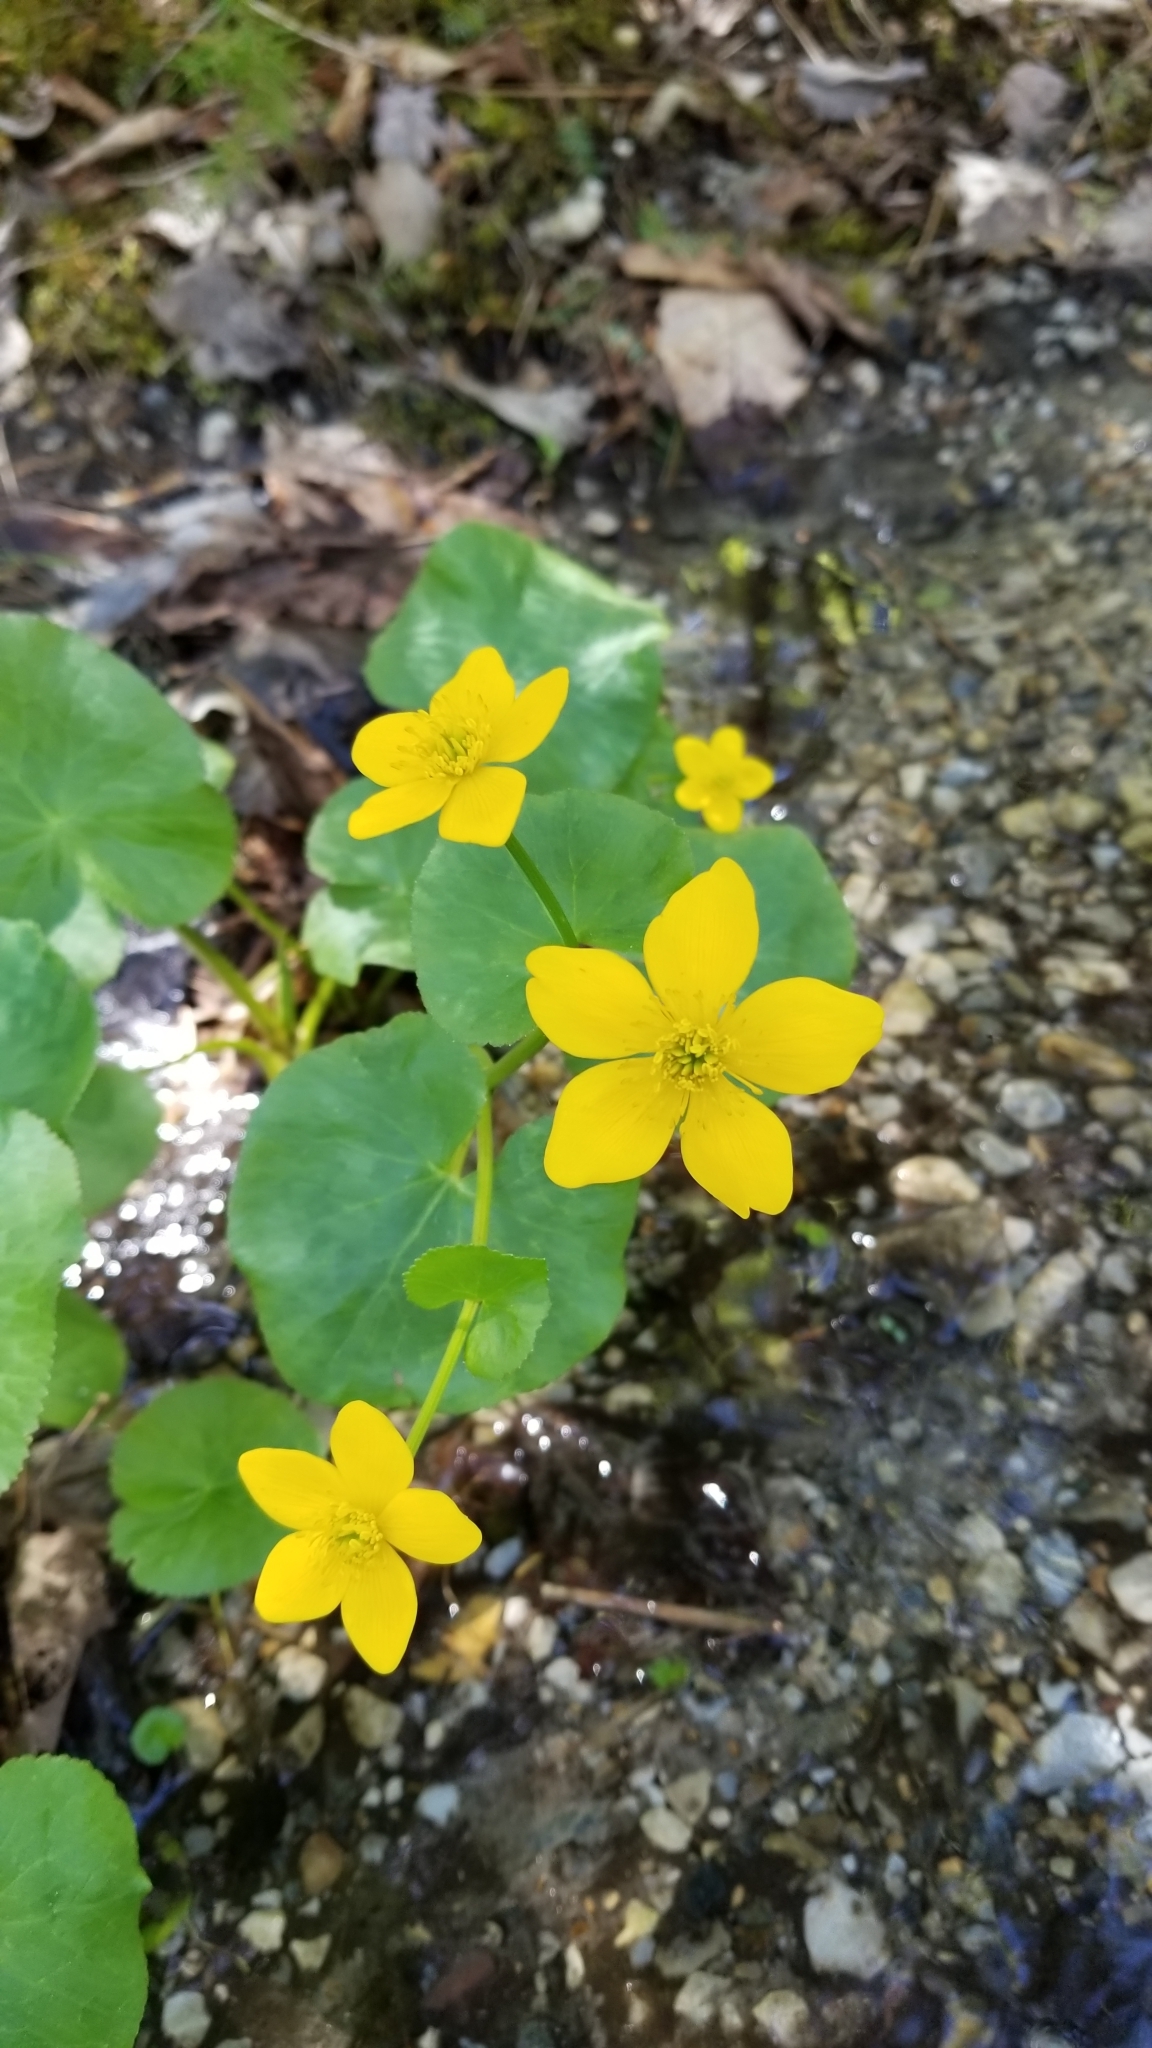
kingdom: Plantae
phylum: Tracheophyta
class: Magnoliopsida
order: Ranunculales
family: Ranunculaceae
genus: Caltha
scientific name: Caltha palustris
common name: Marsh marigold
